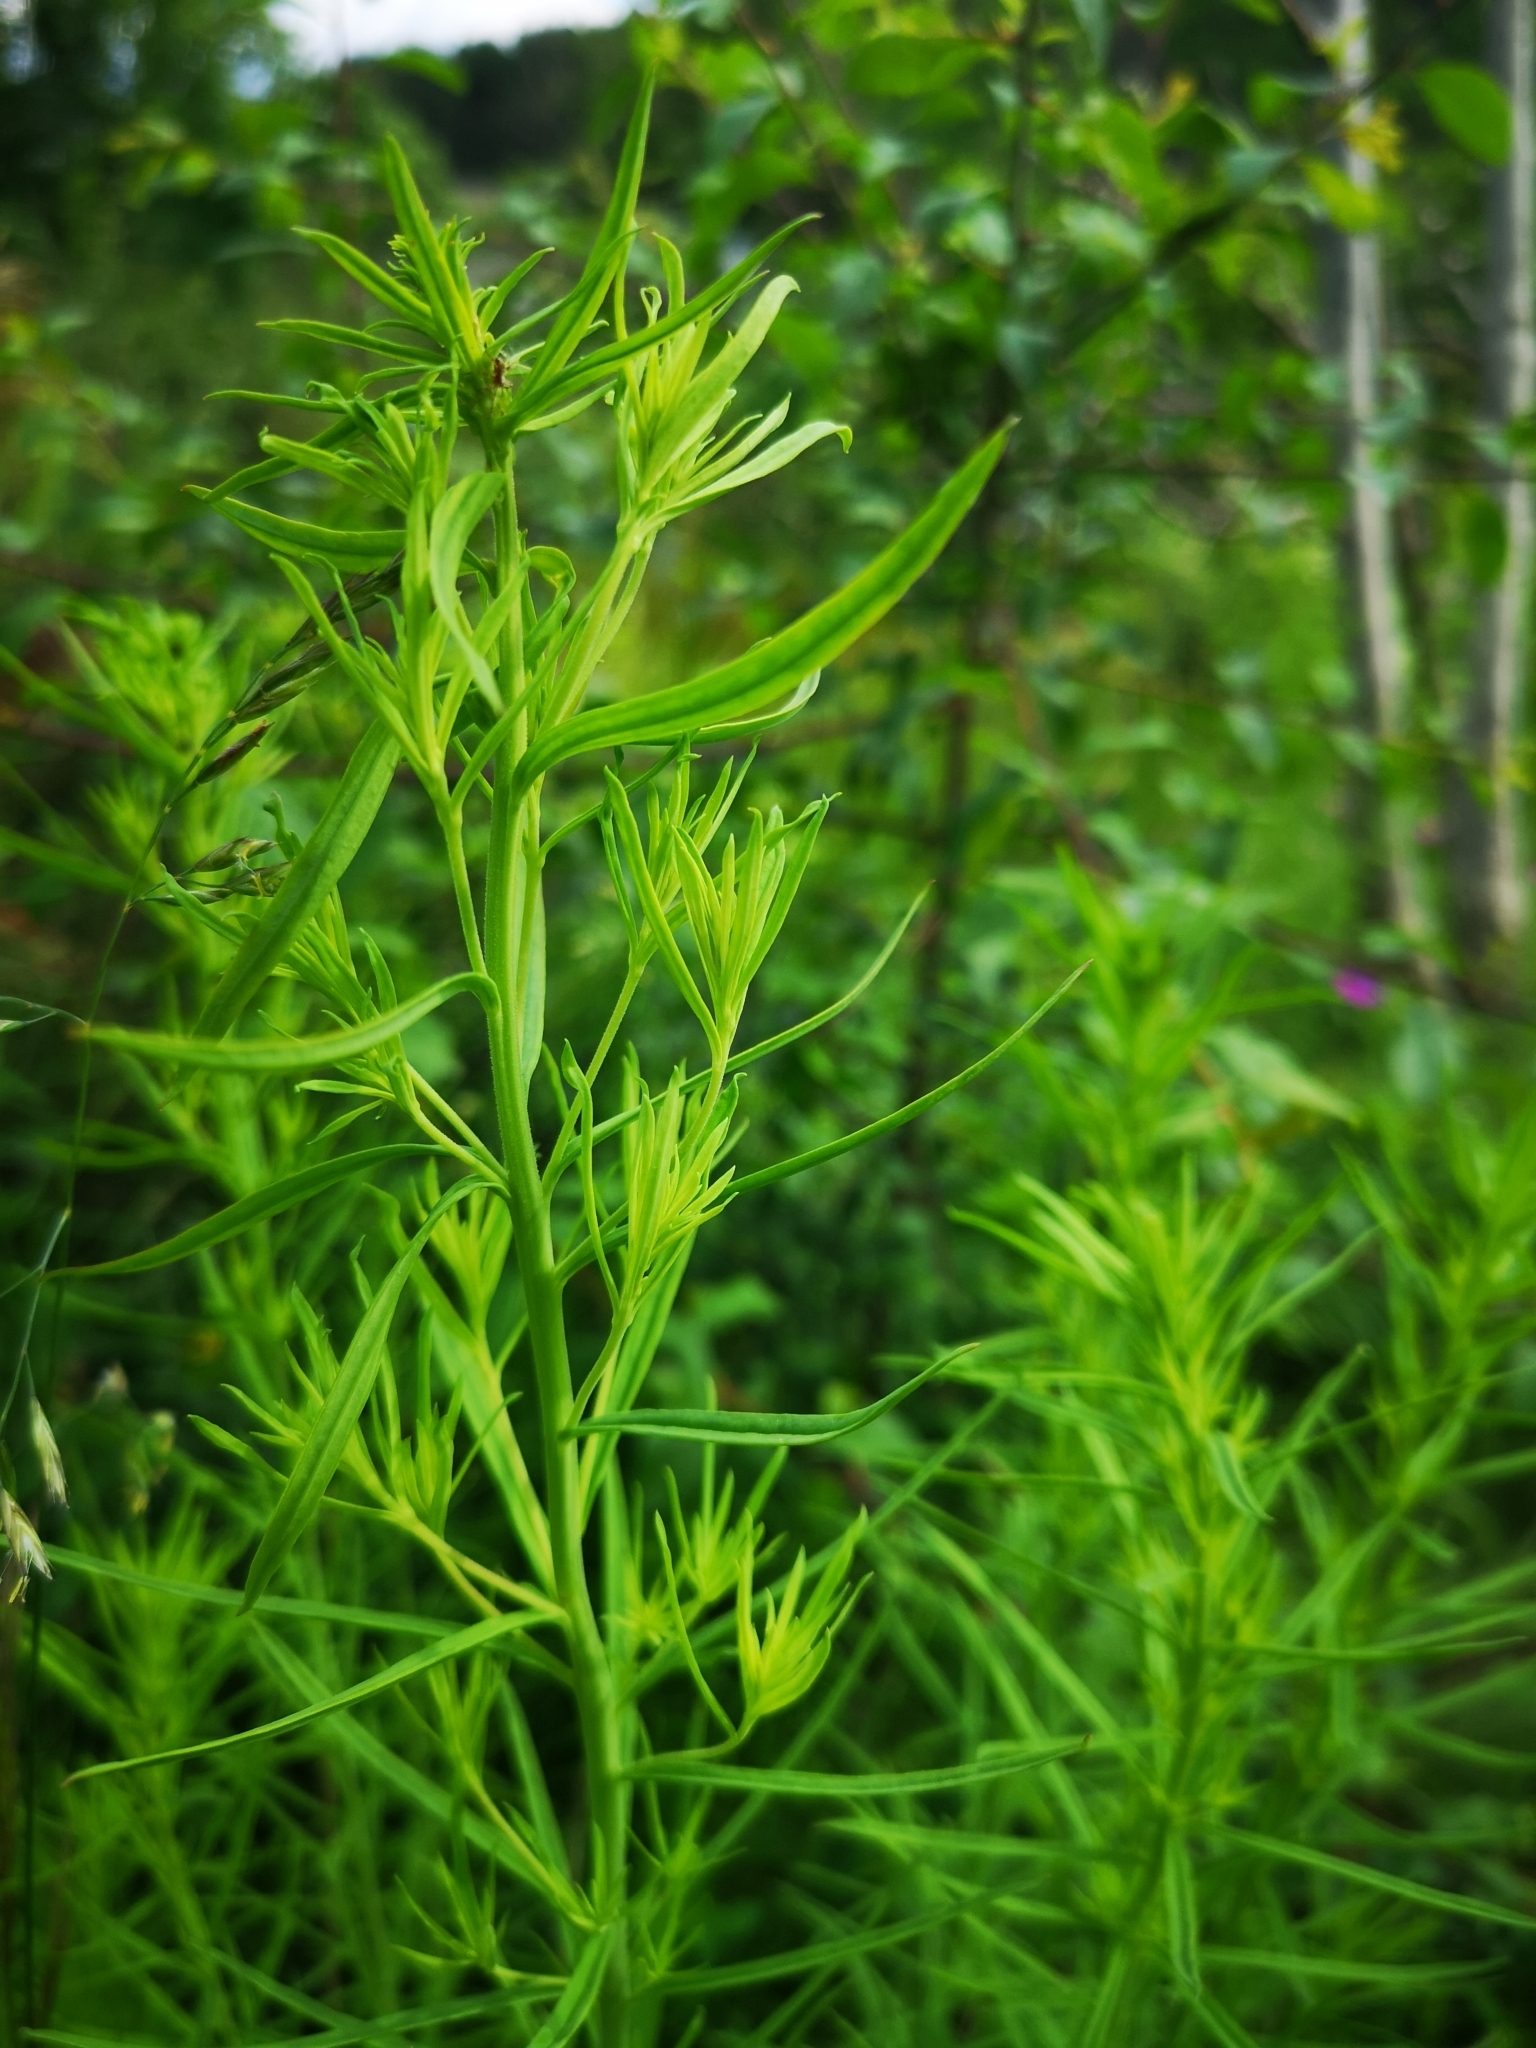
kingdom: Plantae
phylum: Tracheophyta
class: Magnoliopsida
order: Lamiales
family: Plantaginaceae
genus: Linaria
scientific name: Linaria vulgaris
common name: Butter and eggs
